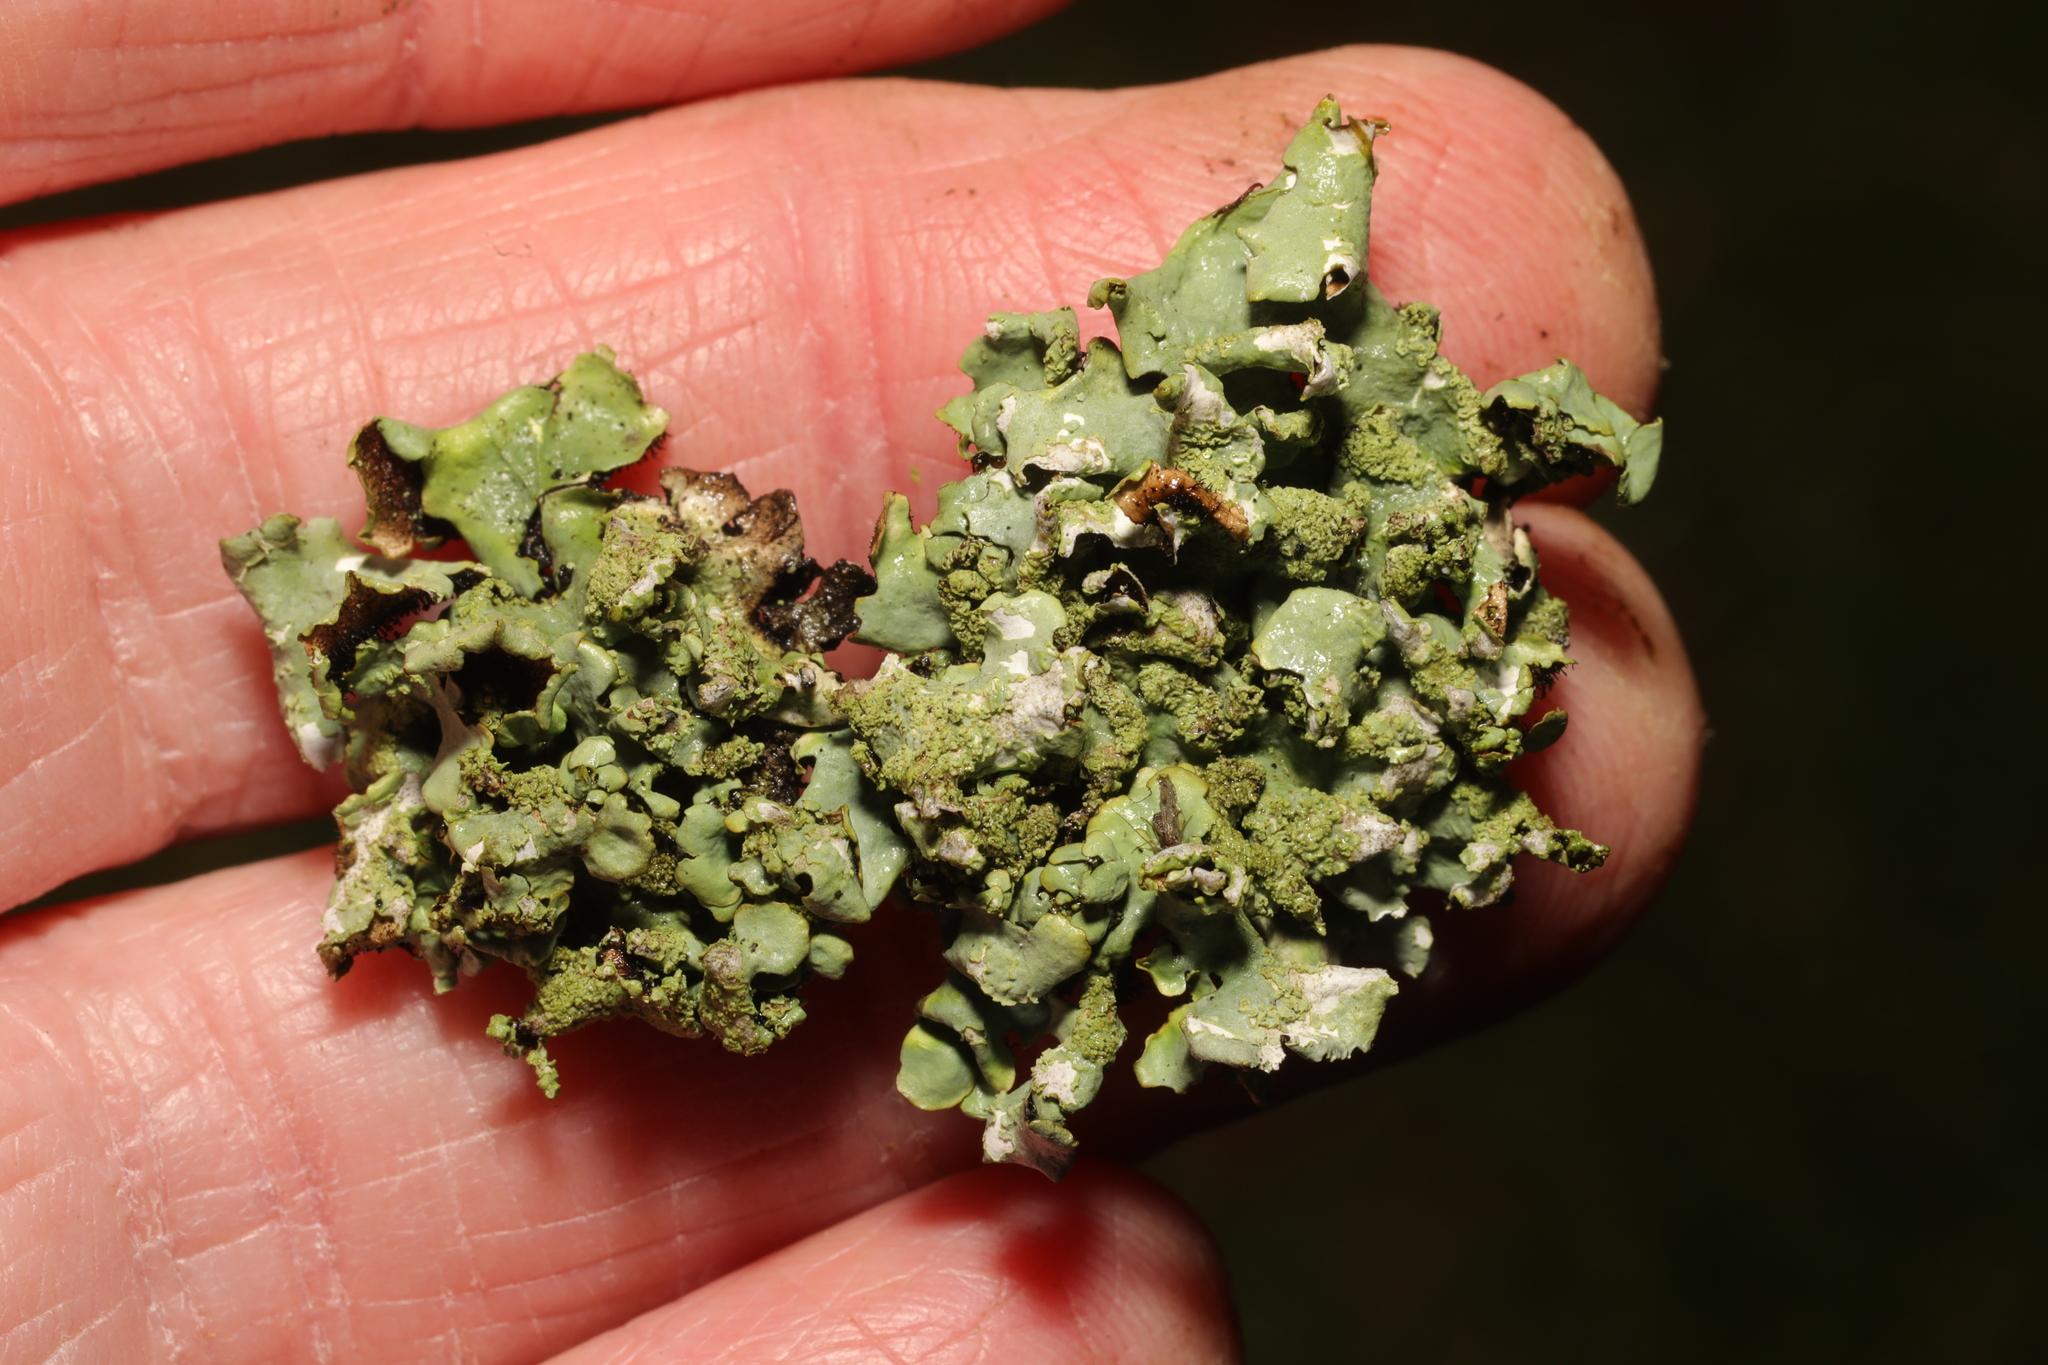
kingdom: Fungi
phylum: Ascomycota
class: Lecanoromycetes
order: Lecanorales
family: Parmeliaceae
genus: Hypotrachyna
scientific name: Hypotrachyna afrorevoluta
